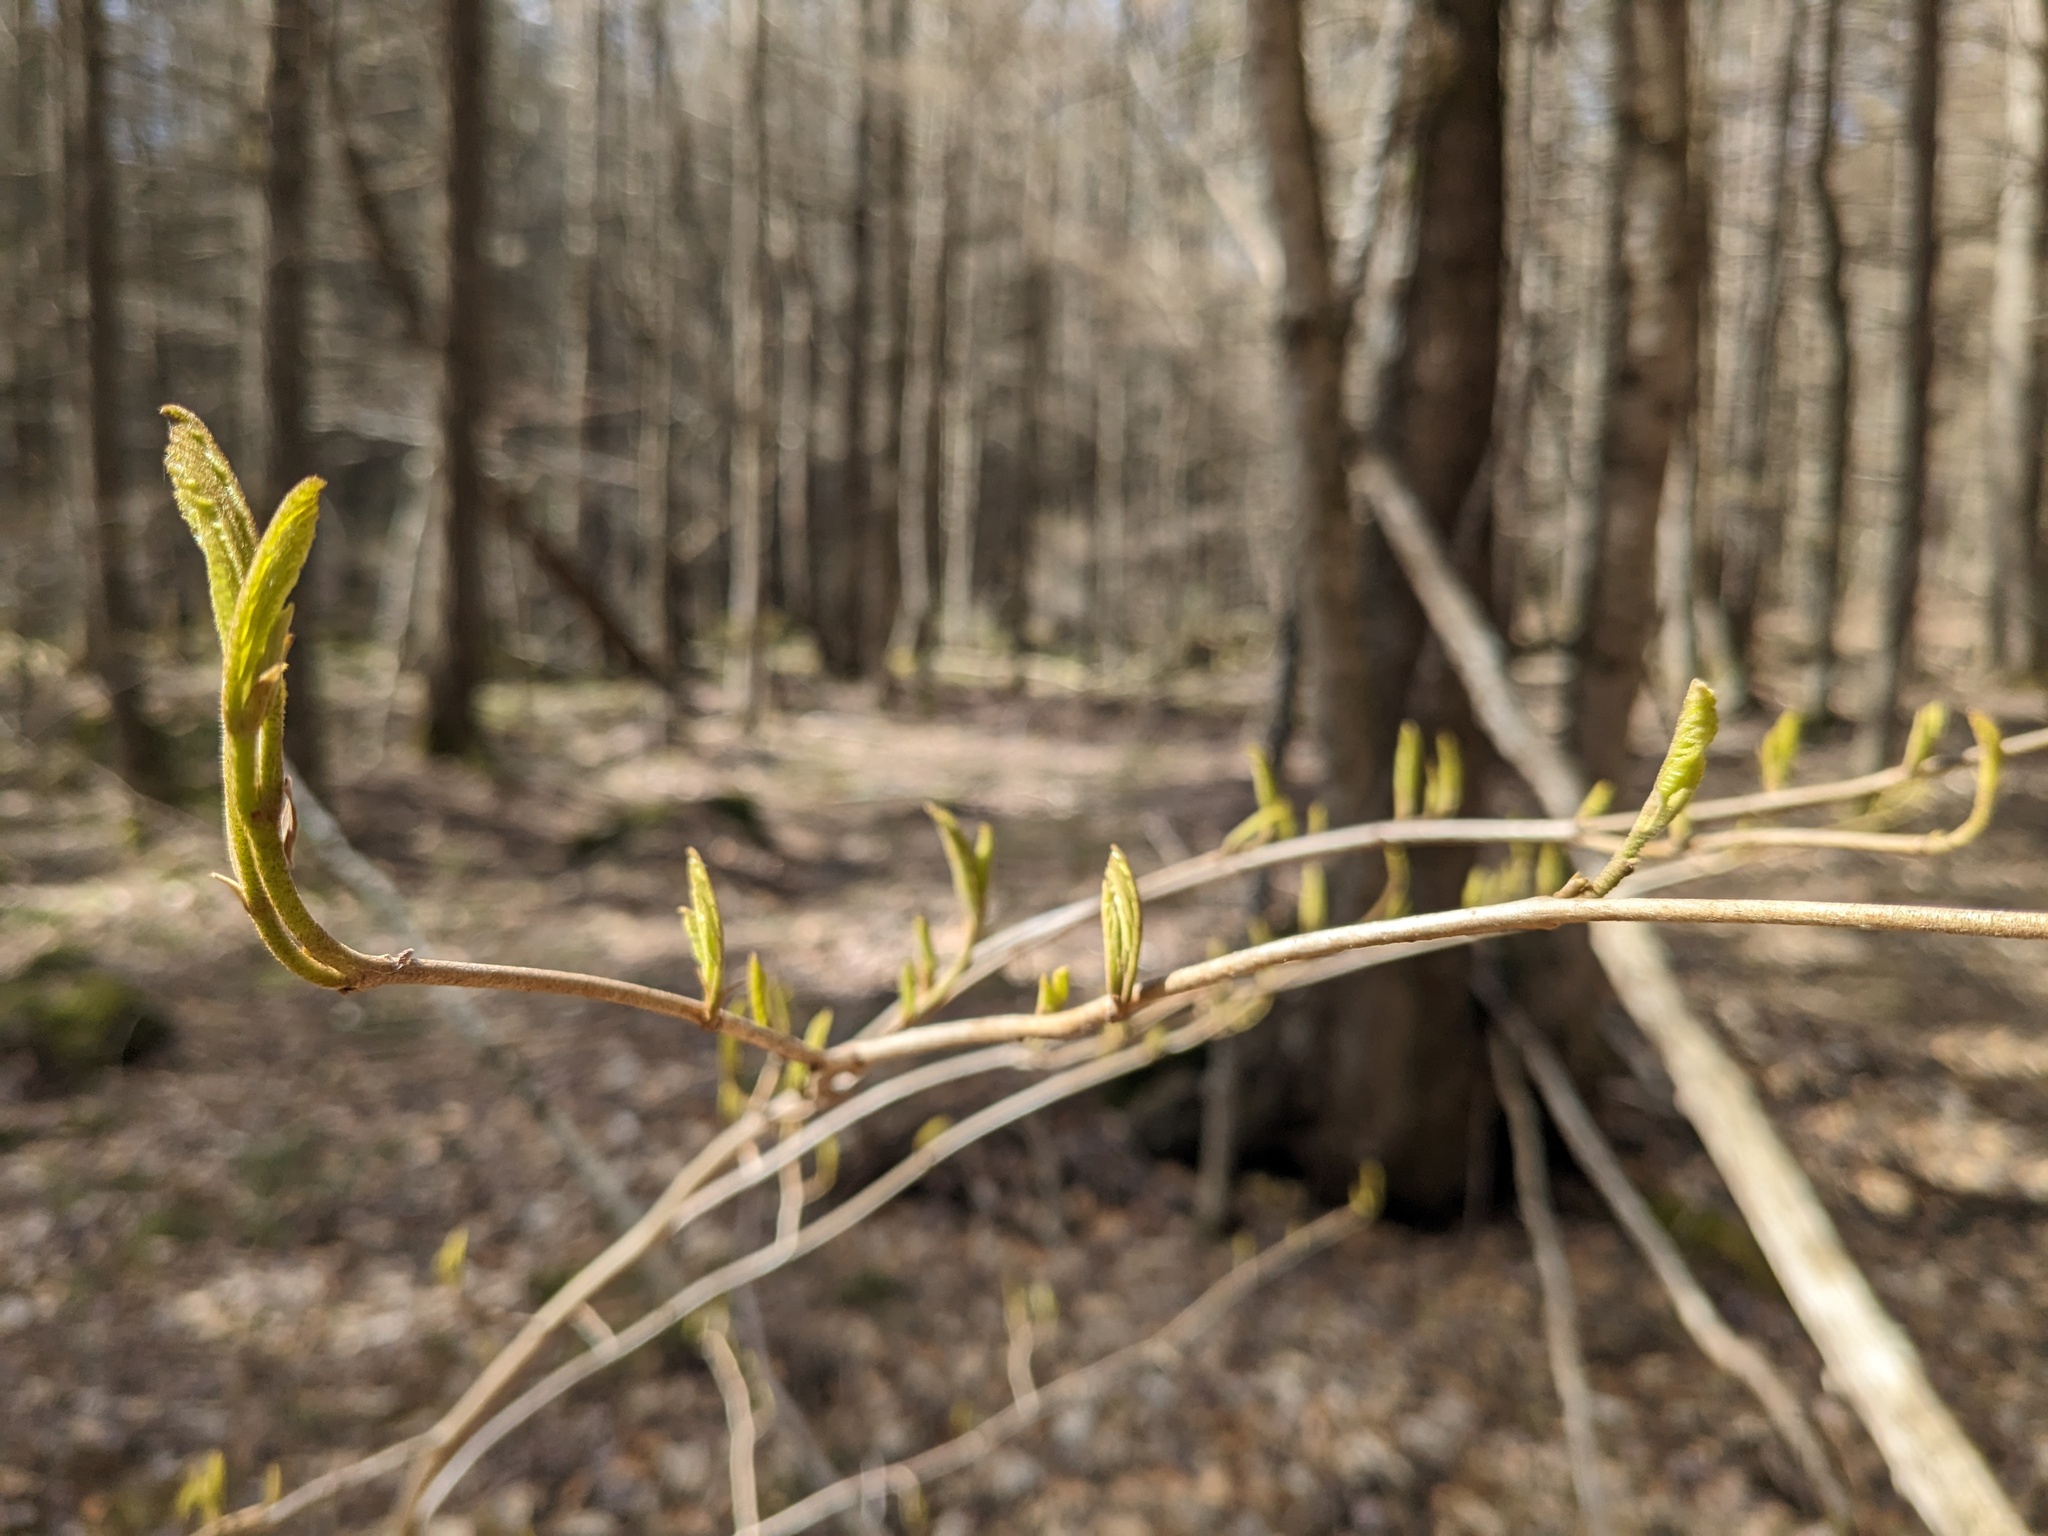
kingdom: Plantae
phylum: Tracheophyta
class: Magnoliopsida
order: Dipsacales
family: Viburnaceae
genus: Viburnum
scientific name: Viburnum lantanoides
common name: Hobblebush
